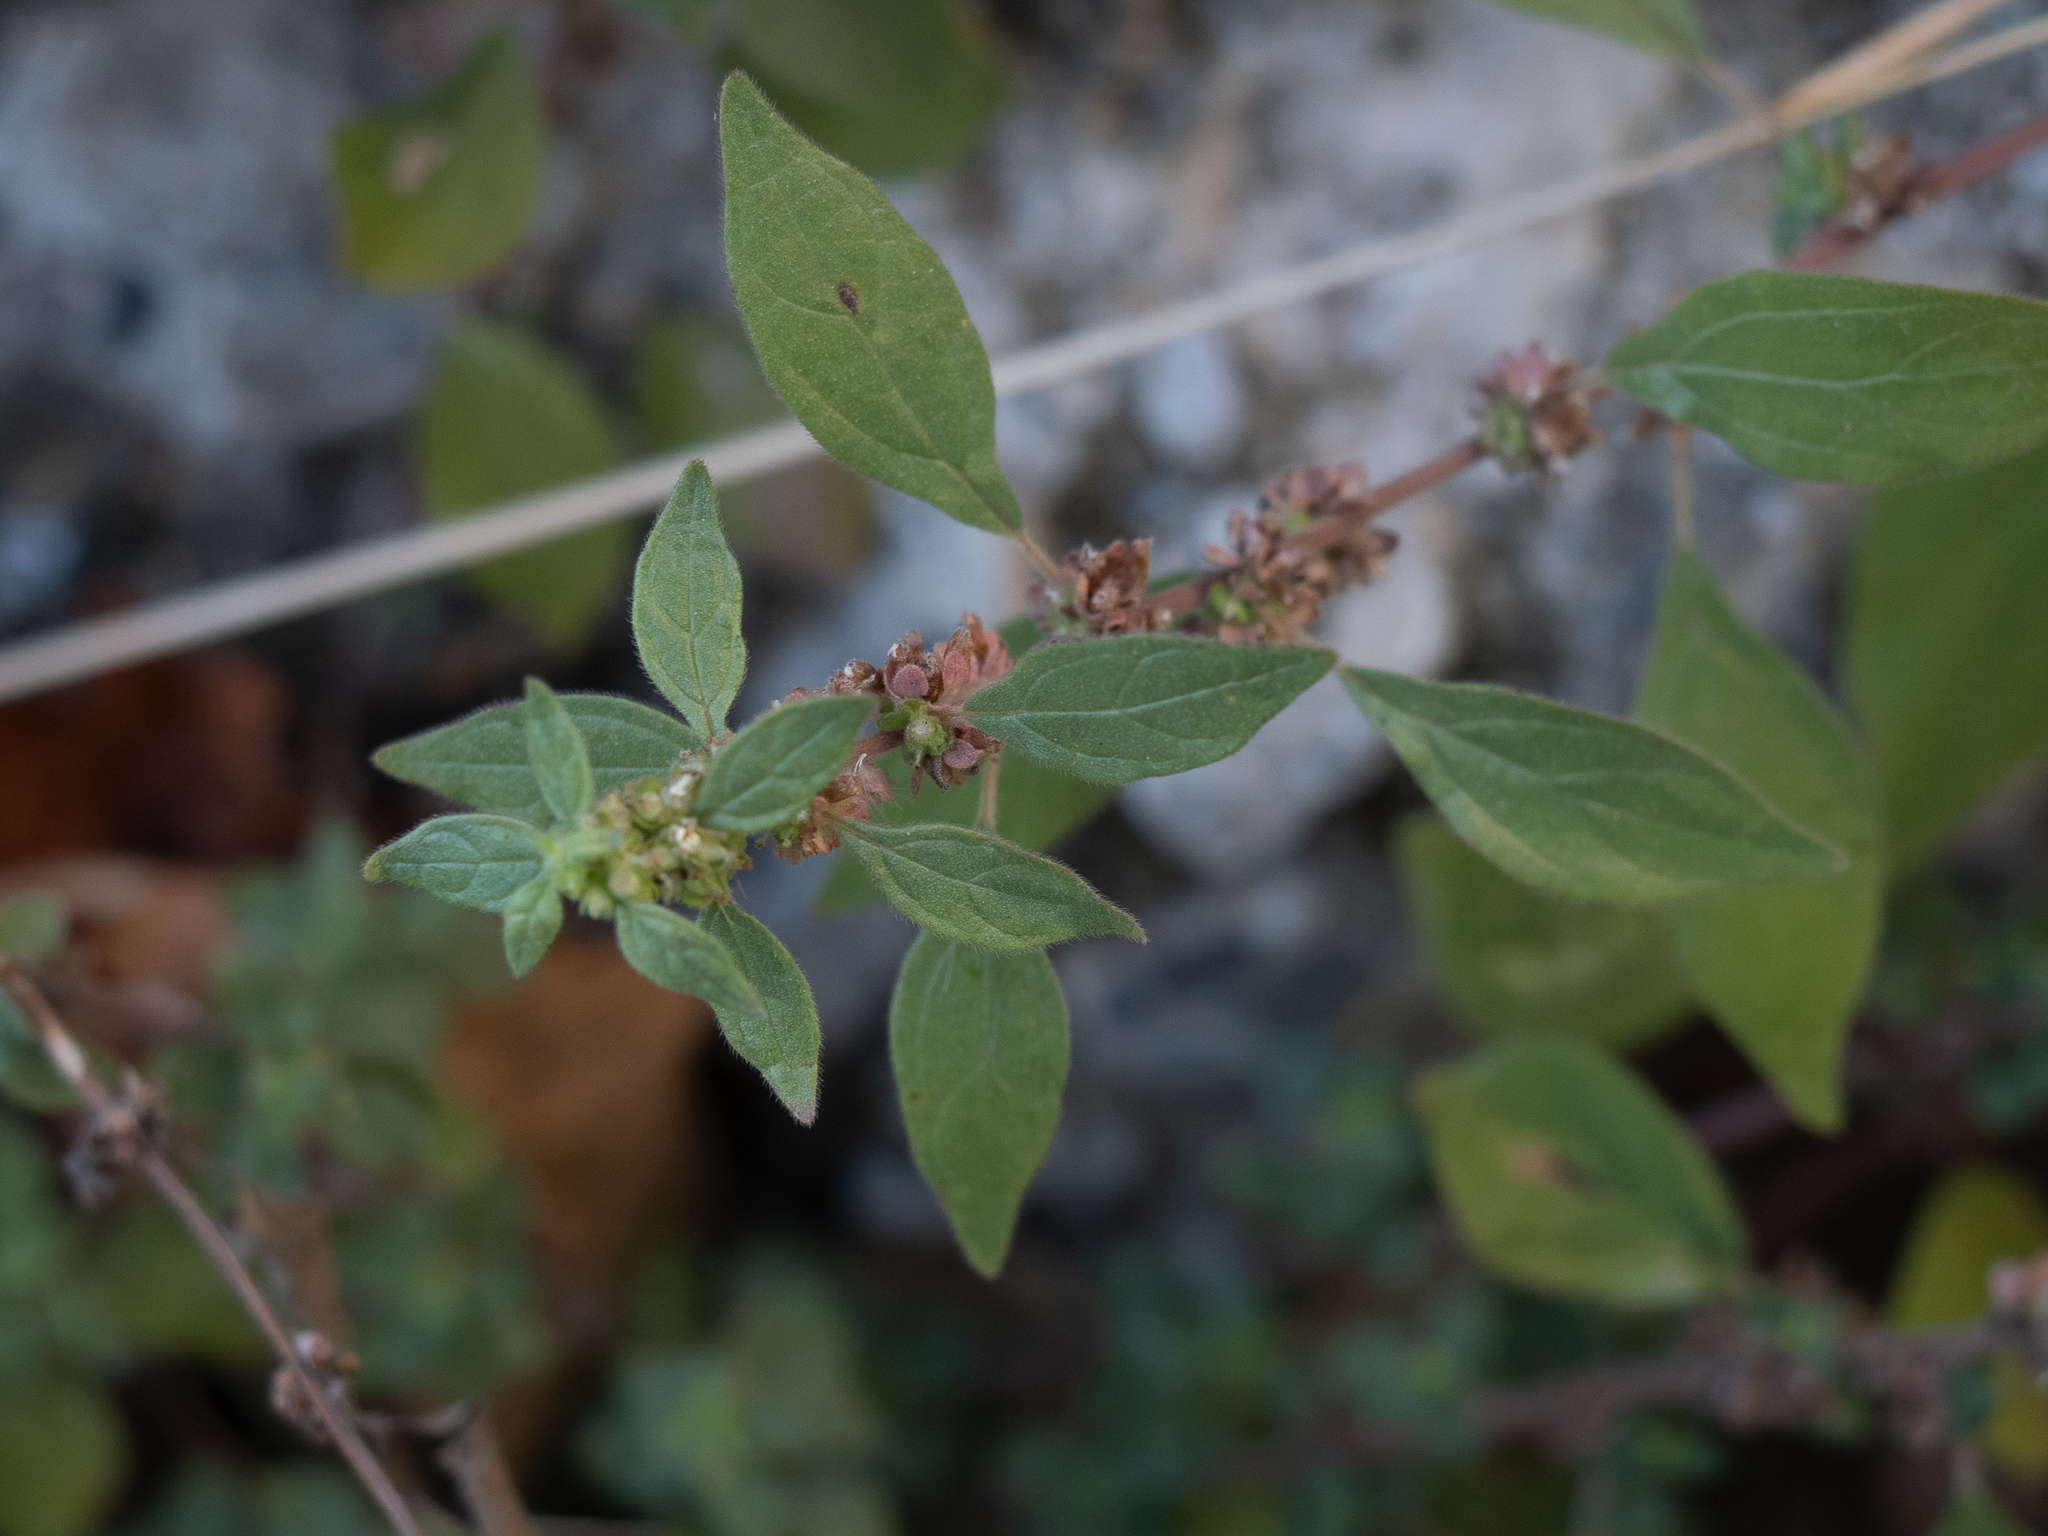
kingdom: Plantae
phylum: Tracheophyta
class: Magnoliopsida
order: Rosales
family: Urticaceae
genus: Parietaria
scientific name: Parietaria judaica
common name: Pellitory-of-the-wall
